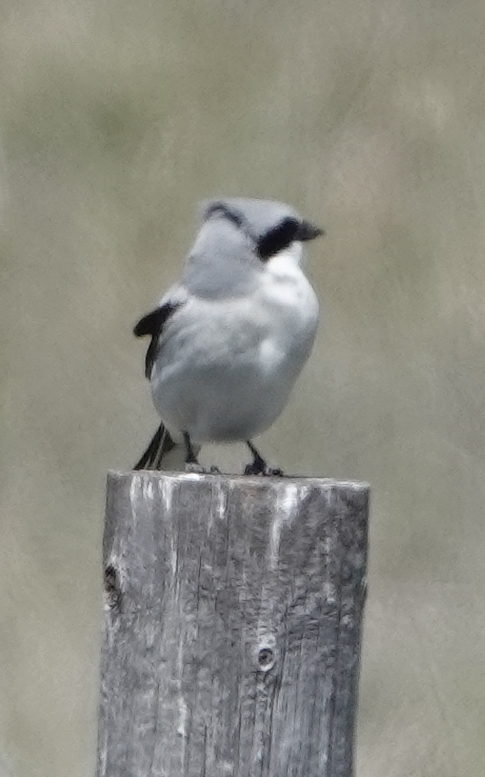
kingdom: Animalia
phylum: Chordata
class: Aves
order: Passeriformes
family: Laniidae
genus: Lanius
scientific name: Lanius ludovicianus
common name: Loggerhead shrike
